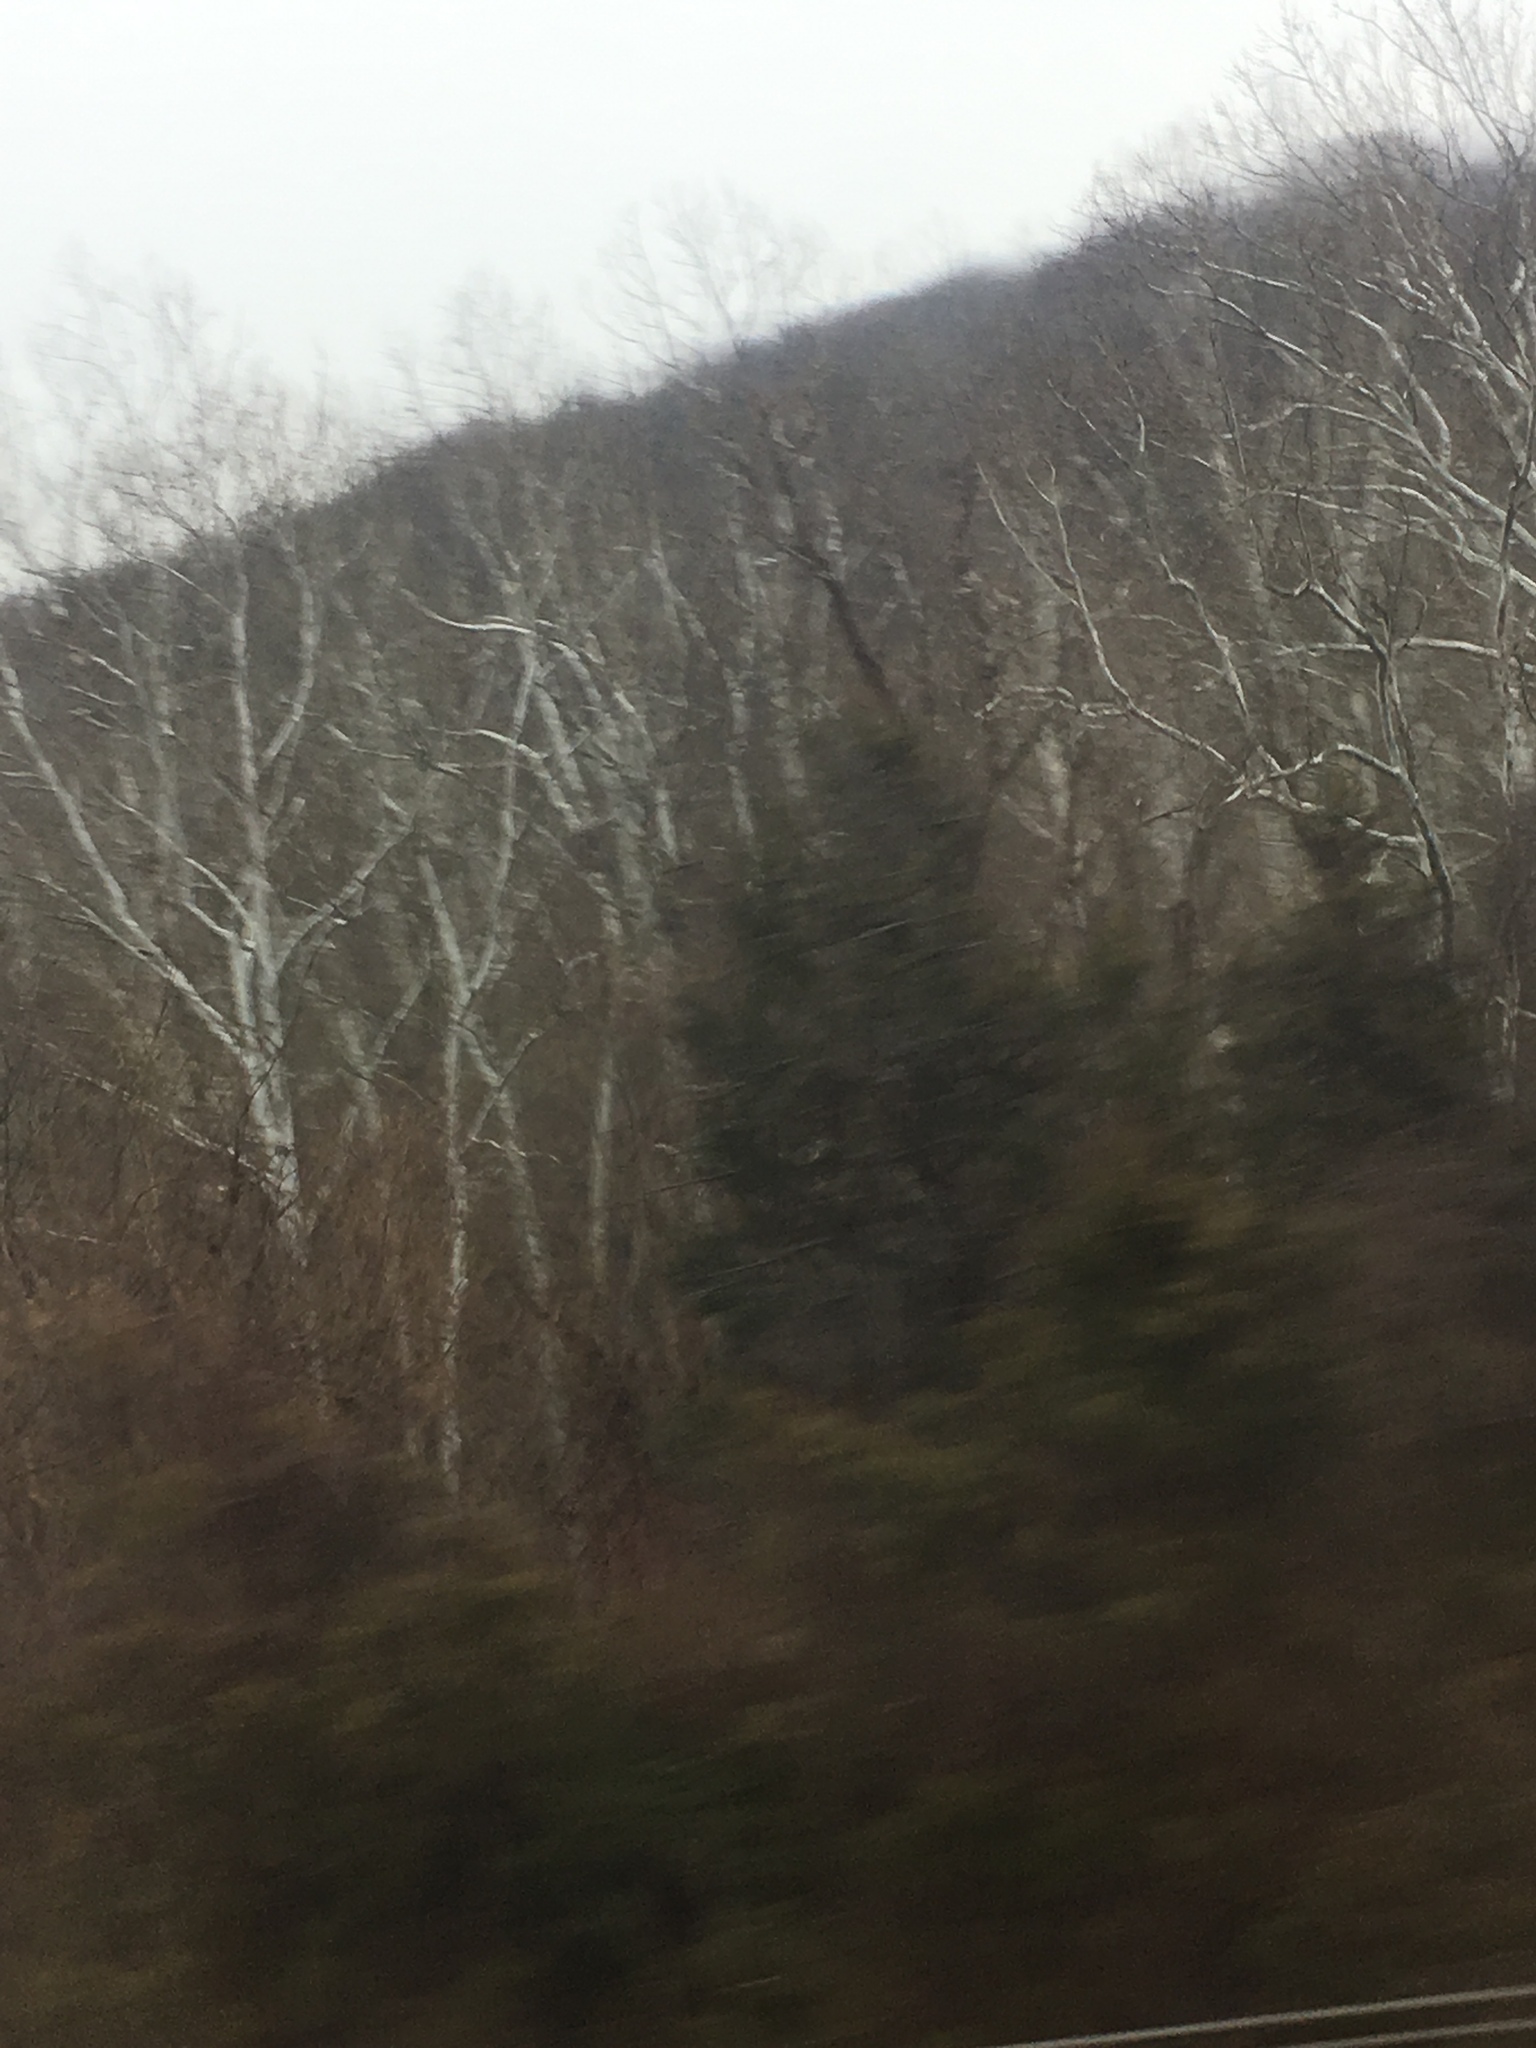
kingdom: Plantae
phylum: Tracheophyta
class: Magnoliopsida
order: Proteales
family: Platanaceae
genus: Platanus
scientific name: Platanus occidentalis
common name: American sycamore
